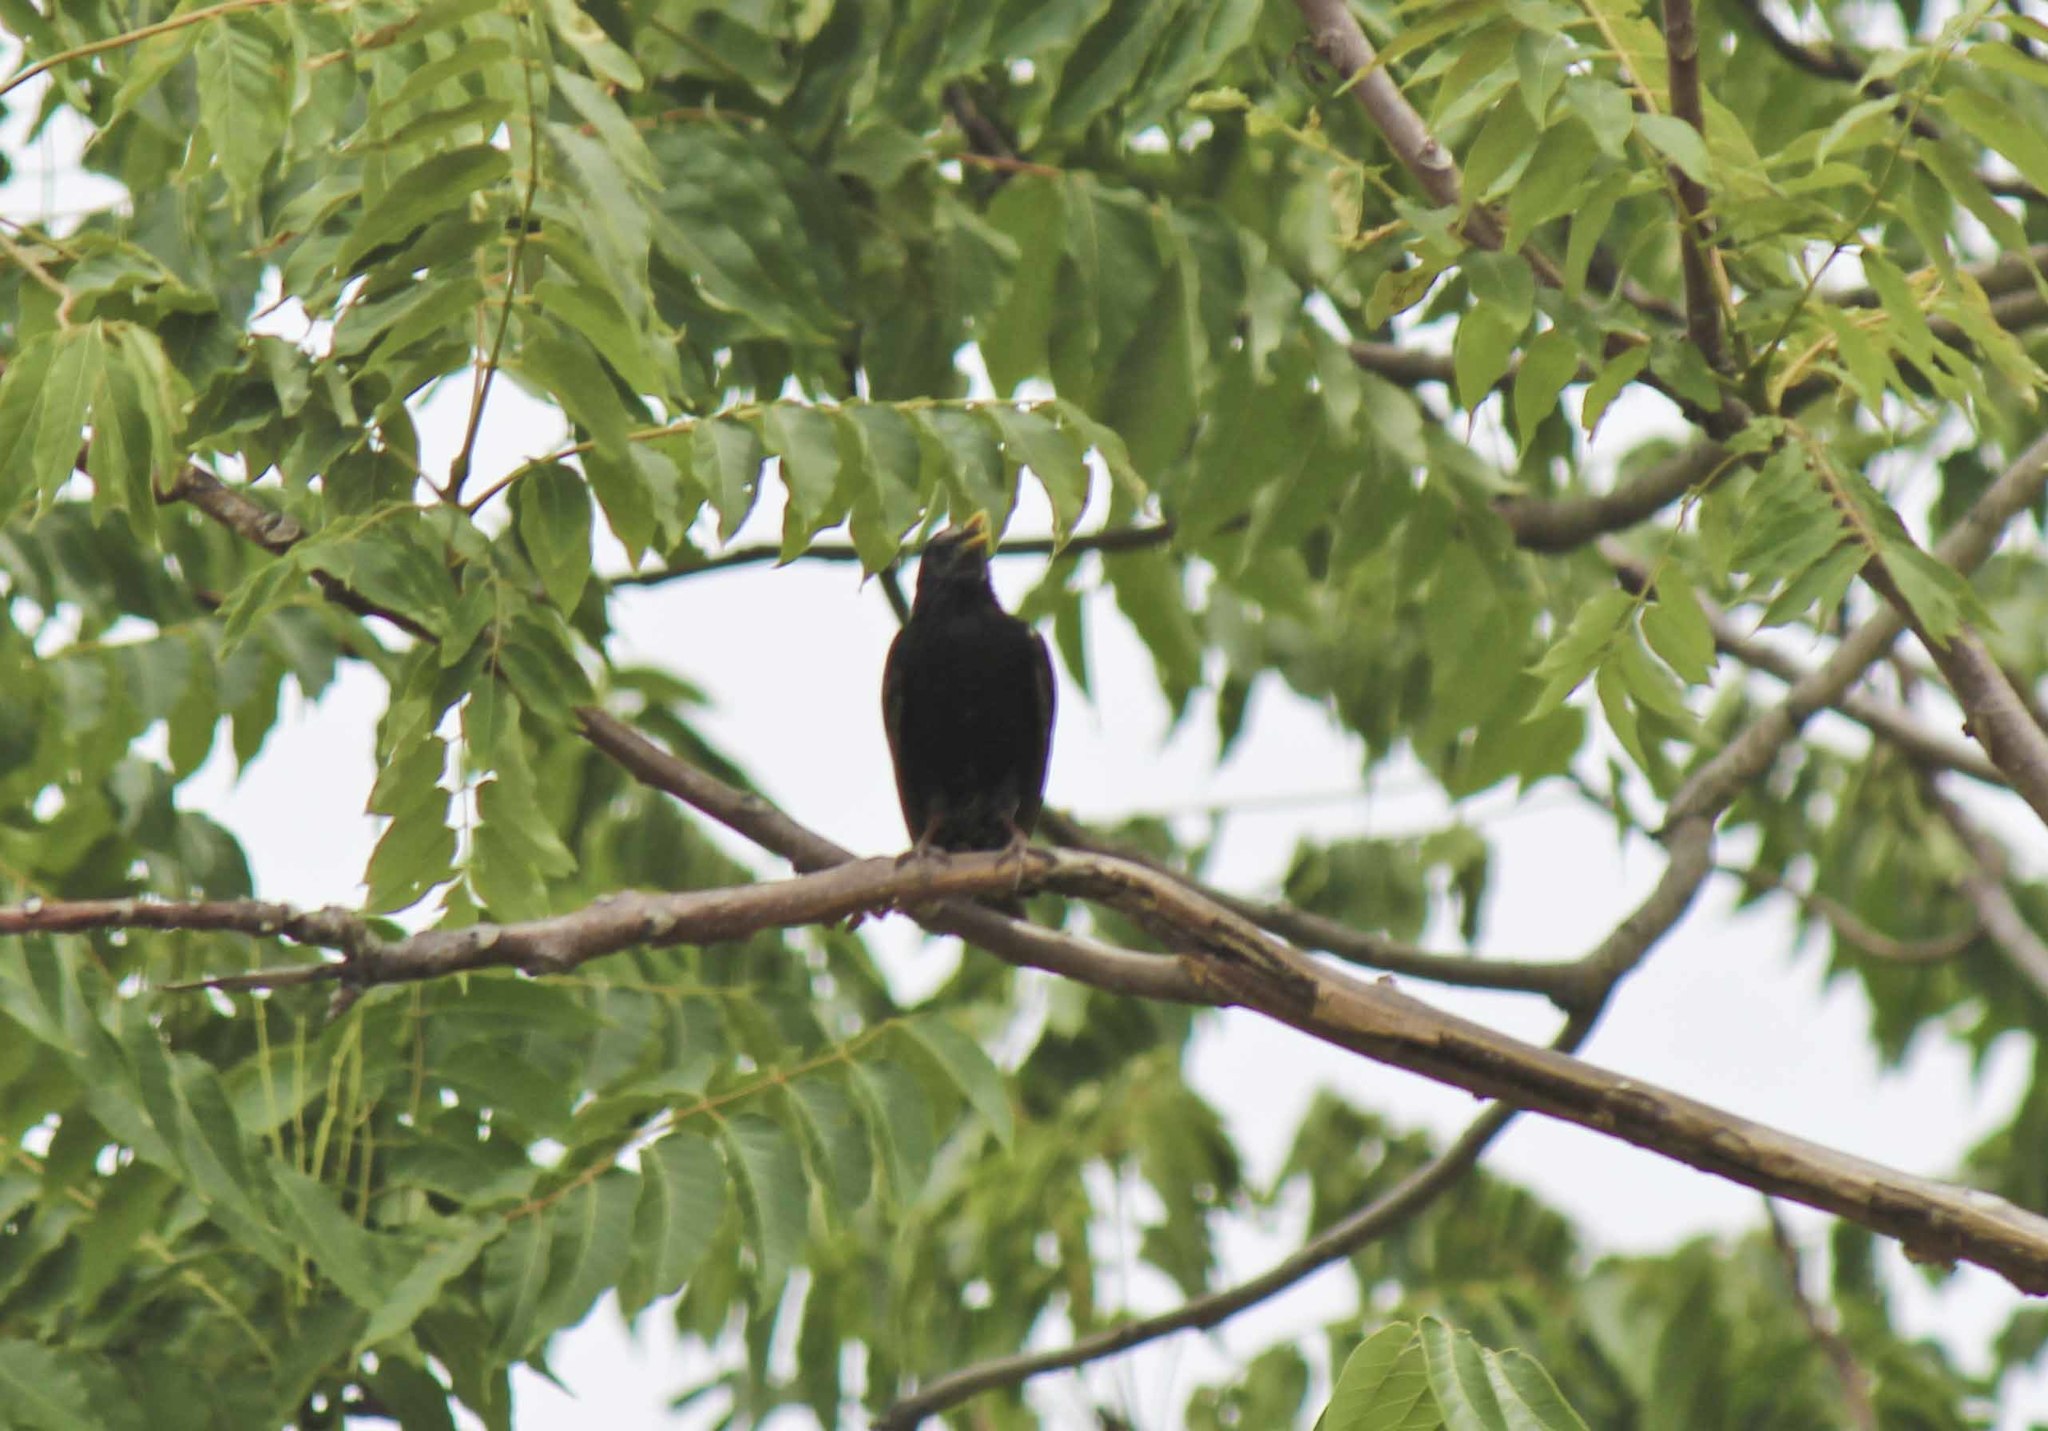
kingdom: Animalia
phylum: Chordata
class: Aves
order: Passeriformes
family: Icteridae
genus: Cacicus
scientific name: Cacicus solitarius
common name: Solitary cacique
